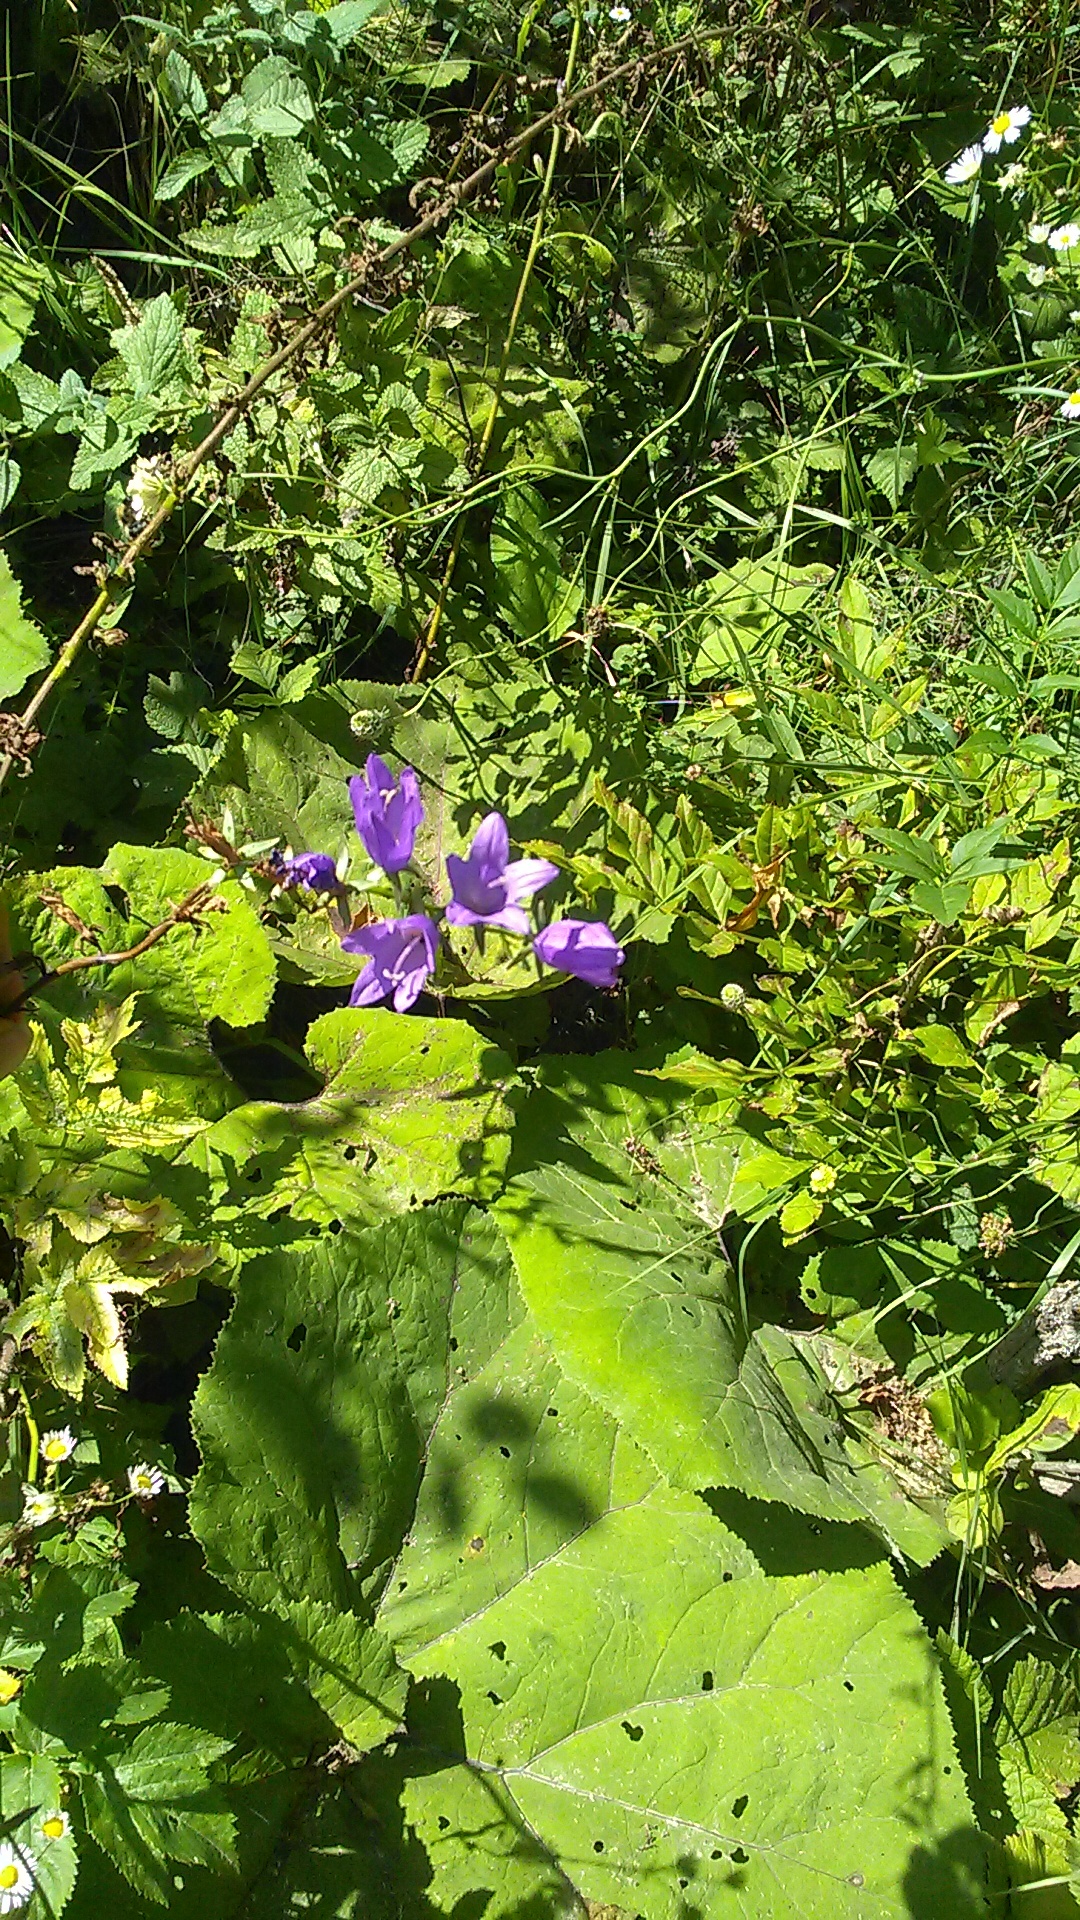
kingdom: Plantae
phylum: Tracheophyta
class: Magnoliopsida
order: Asterales
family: Campanulaceae
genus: Campanula
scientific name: Campanula rapunculoides
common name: Creeping bellflower
